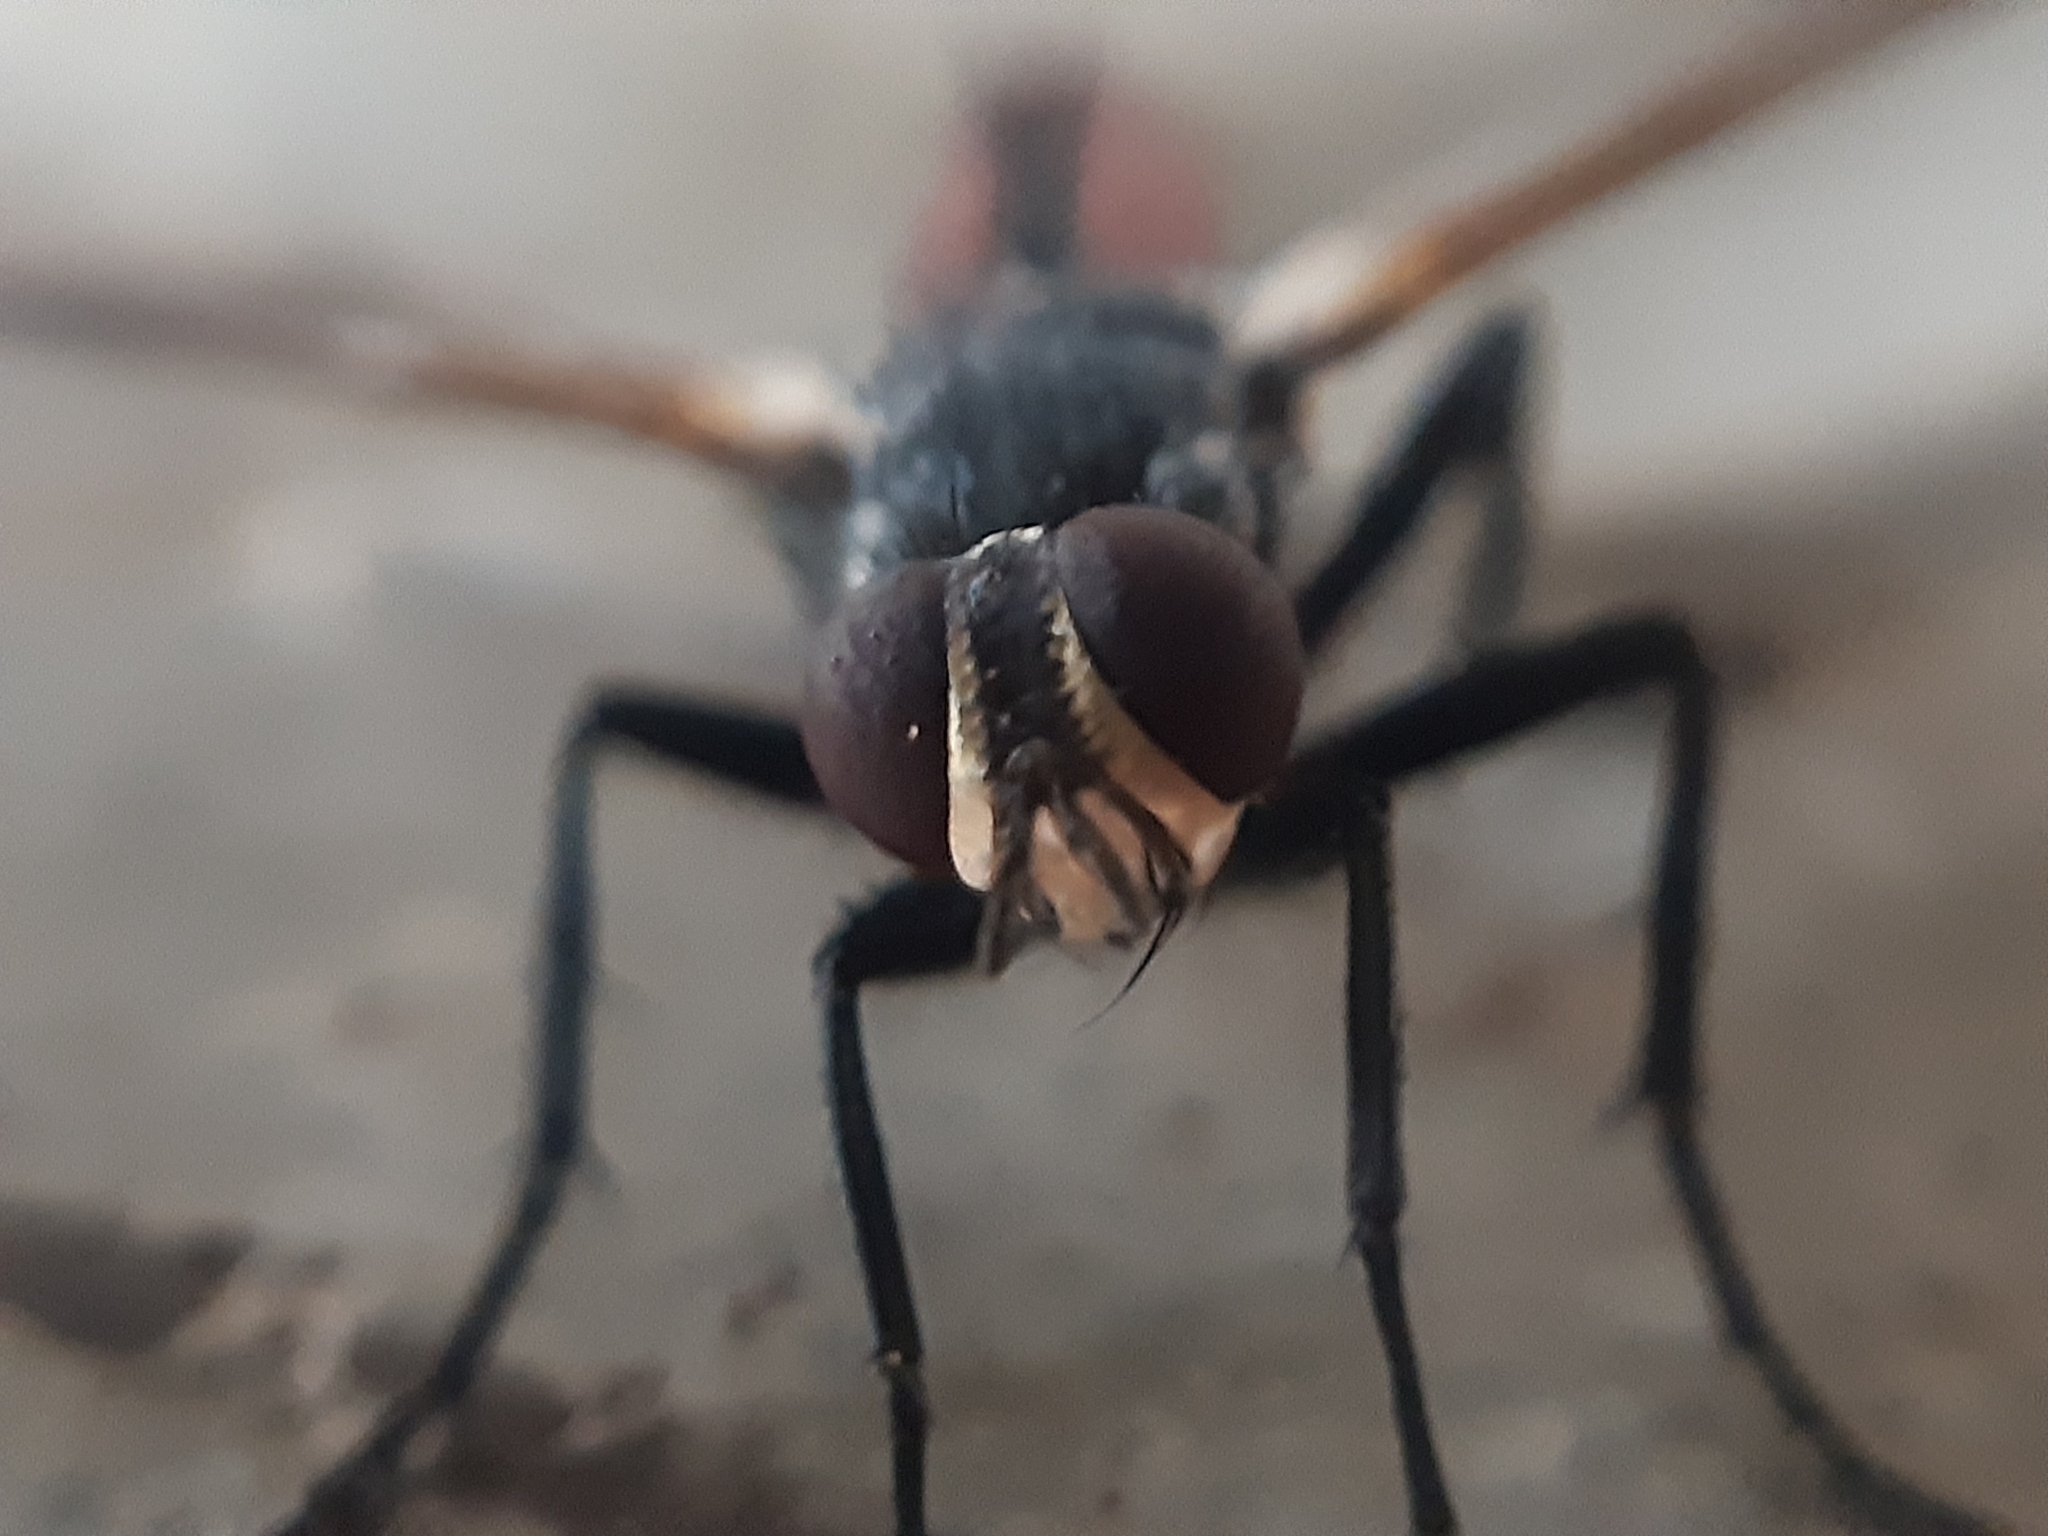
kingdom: Animalia
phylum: Arthropoda
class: Insecta
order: Diptera
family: Tachinidae
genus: Cylindromyia
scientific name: Cylindromyia bicolor
